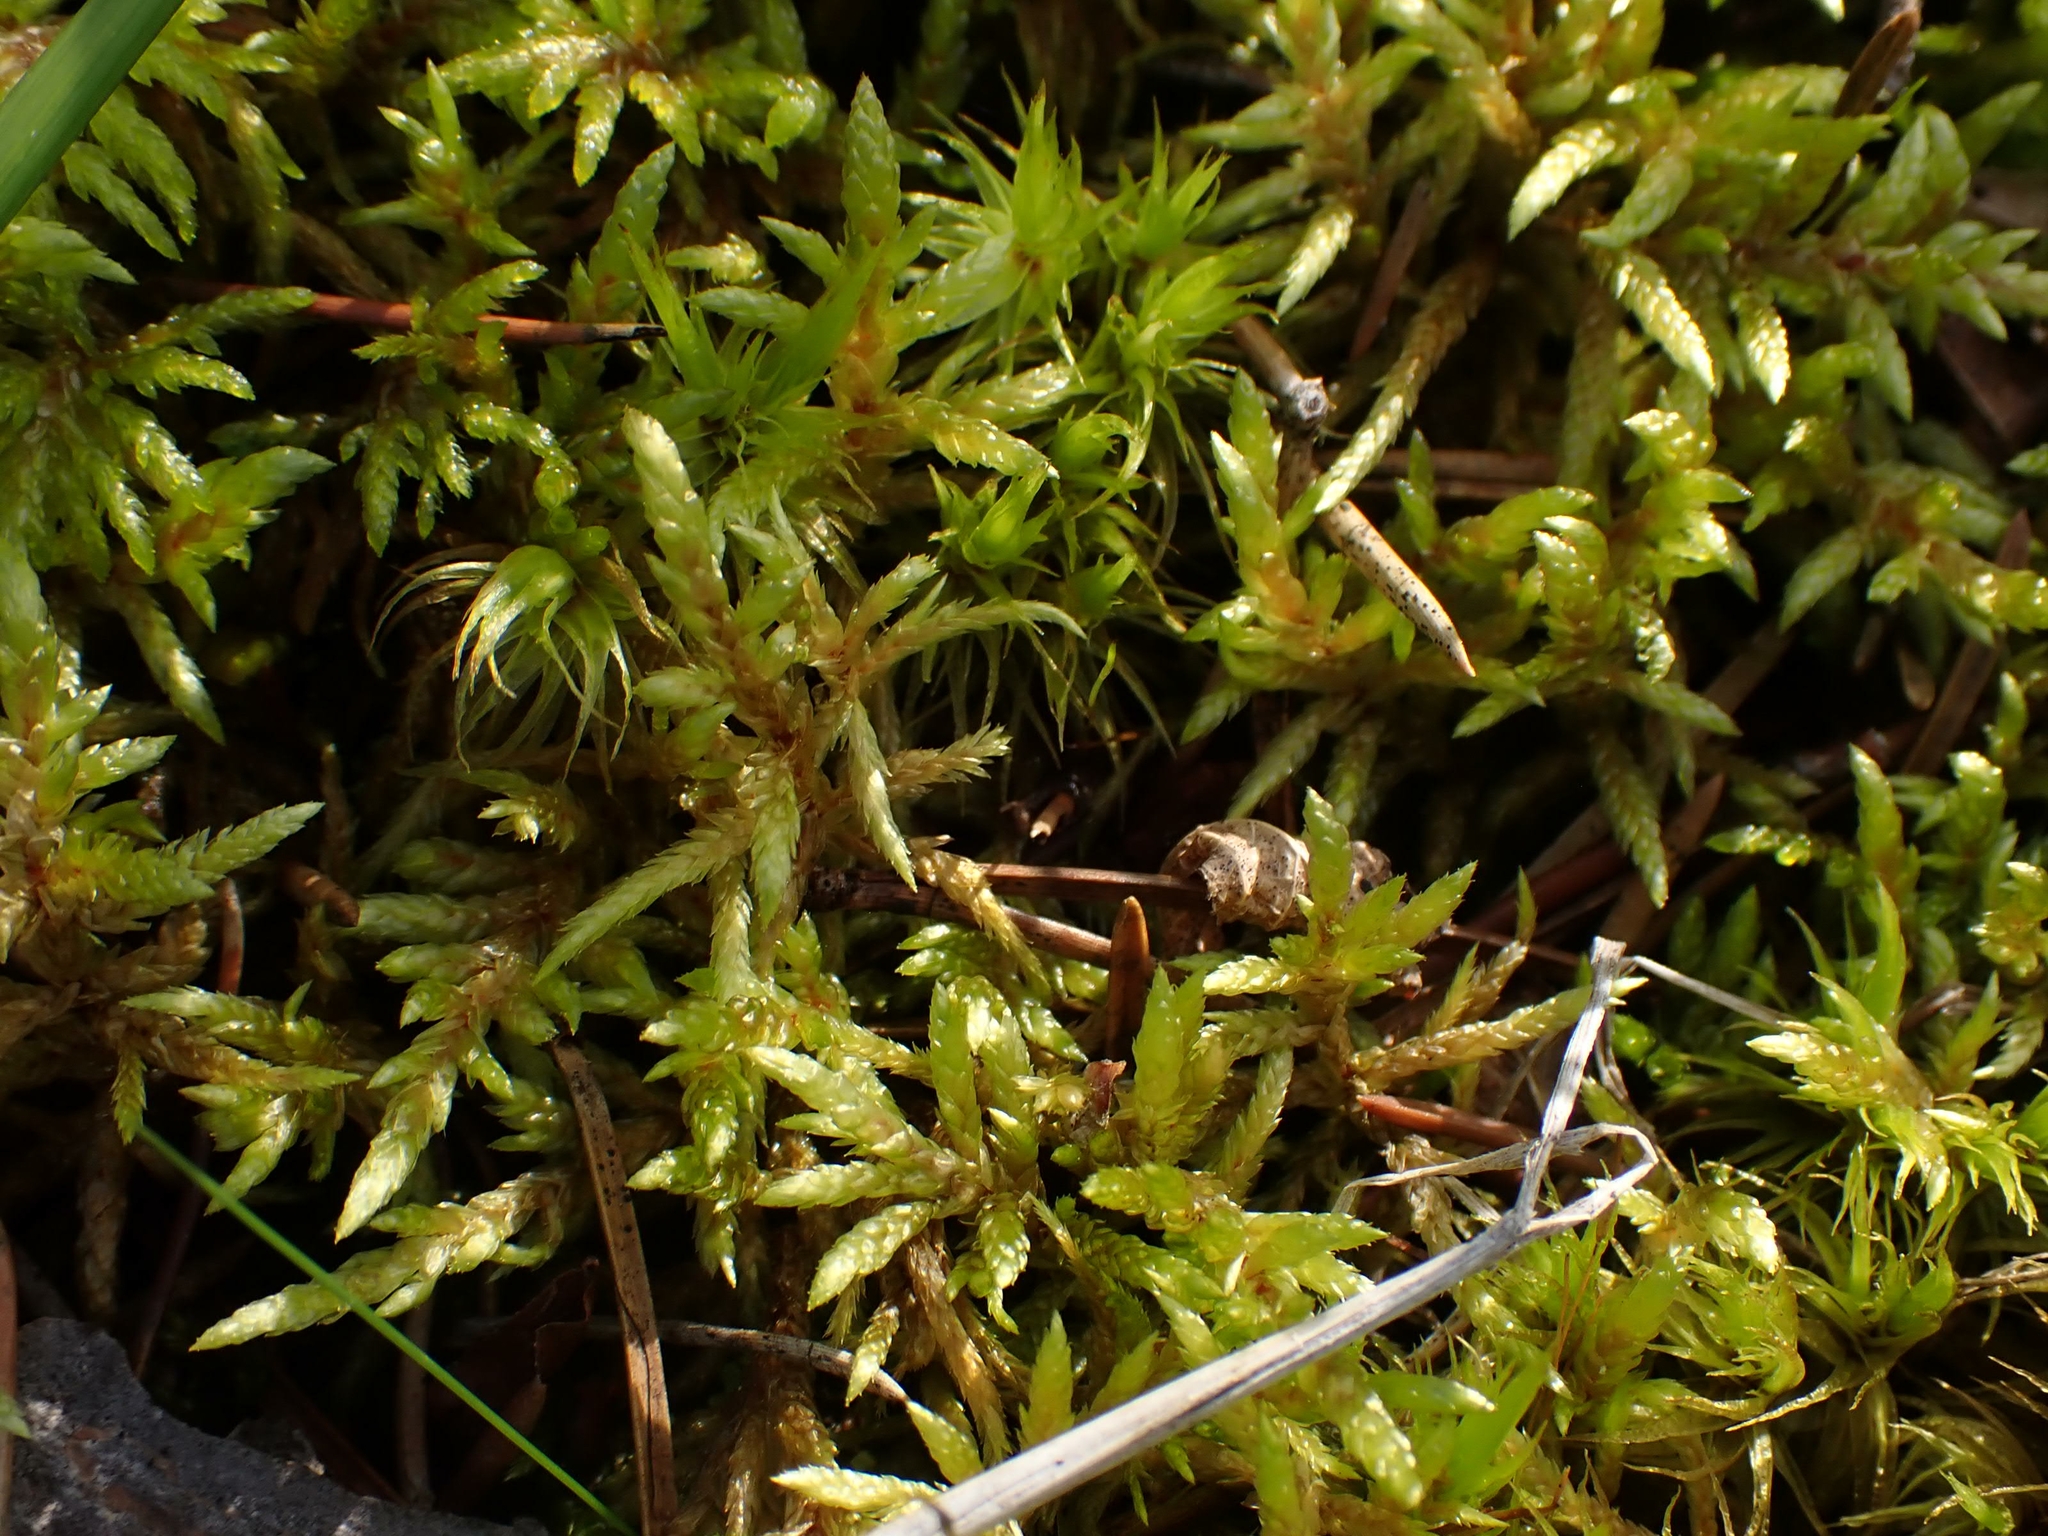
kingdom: Plantae
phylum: Bryophyta
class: Bryopsida
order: Hypnales
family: Hylocomiaceae
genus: Pleurozium
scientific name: Pleurozium schreberi
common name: Red-stemmed feather moss
